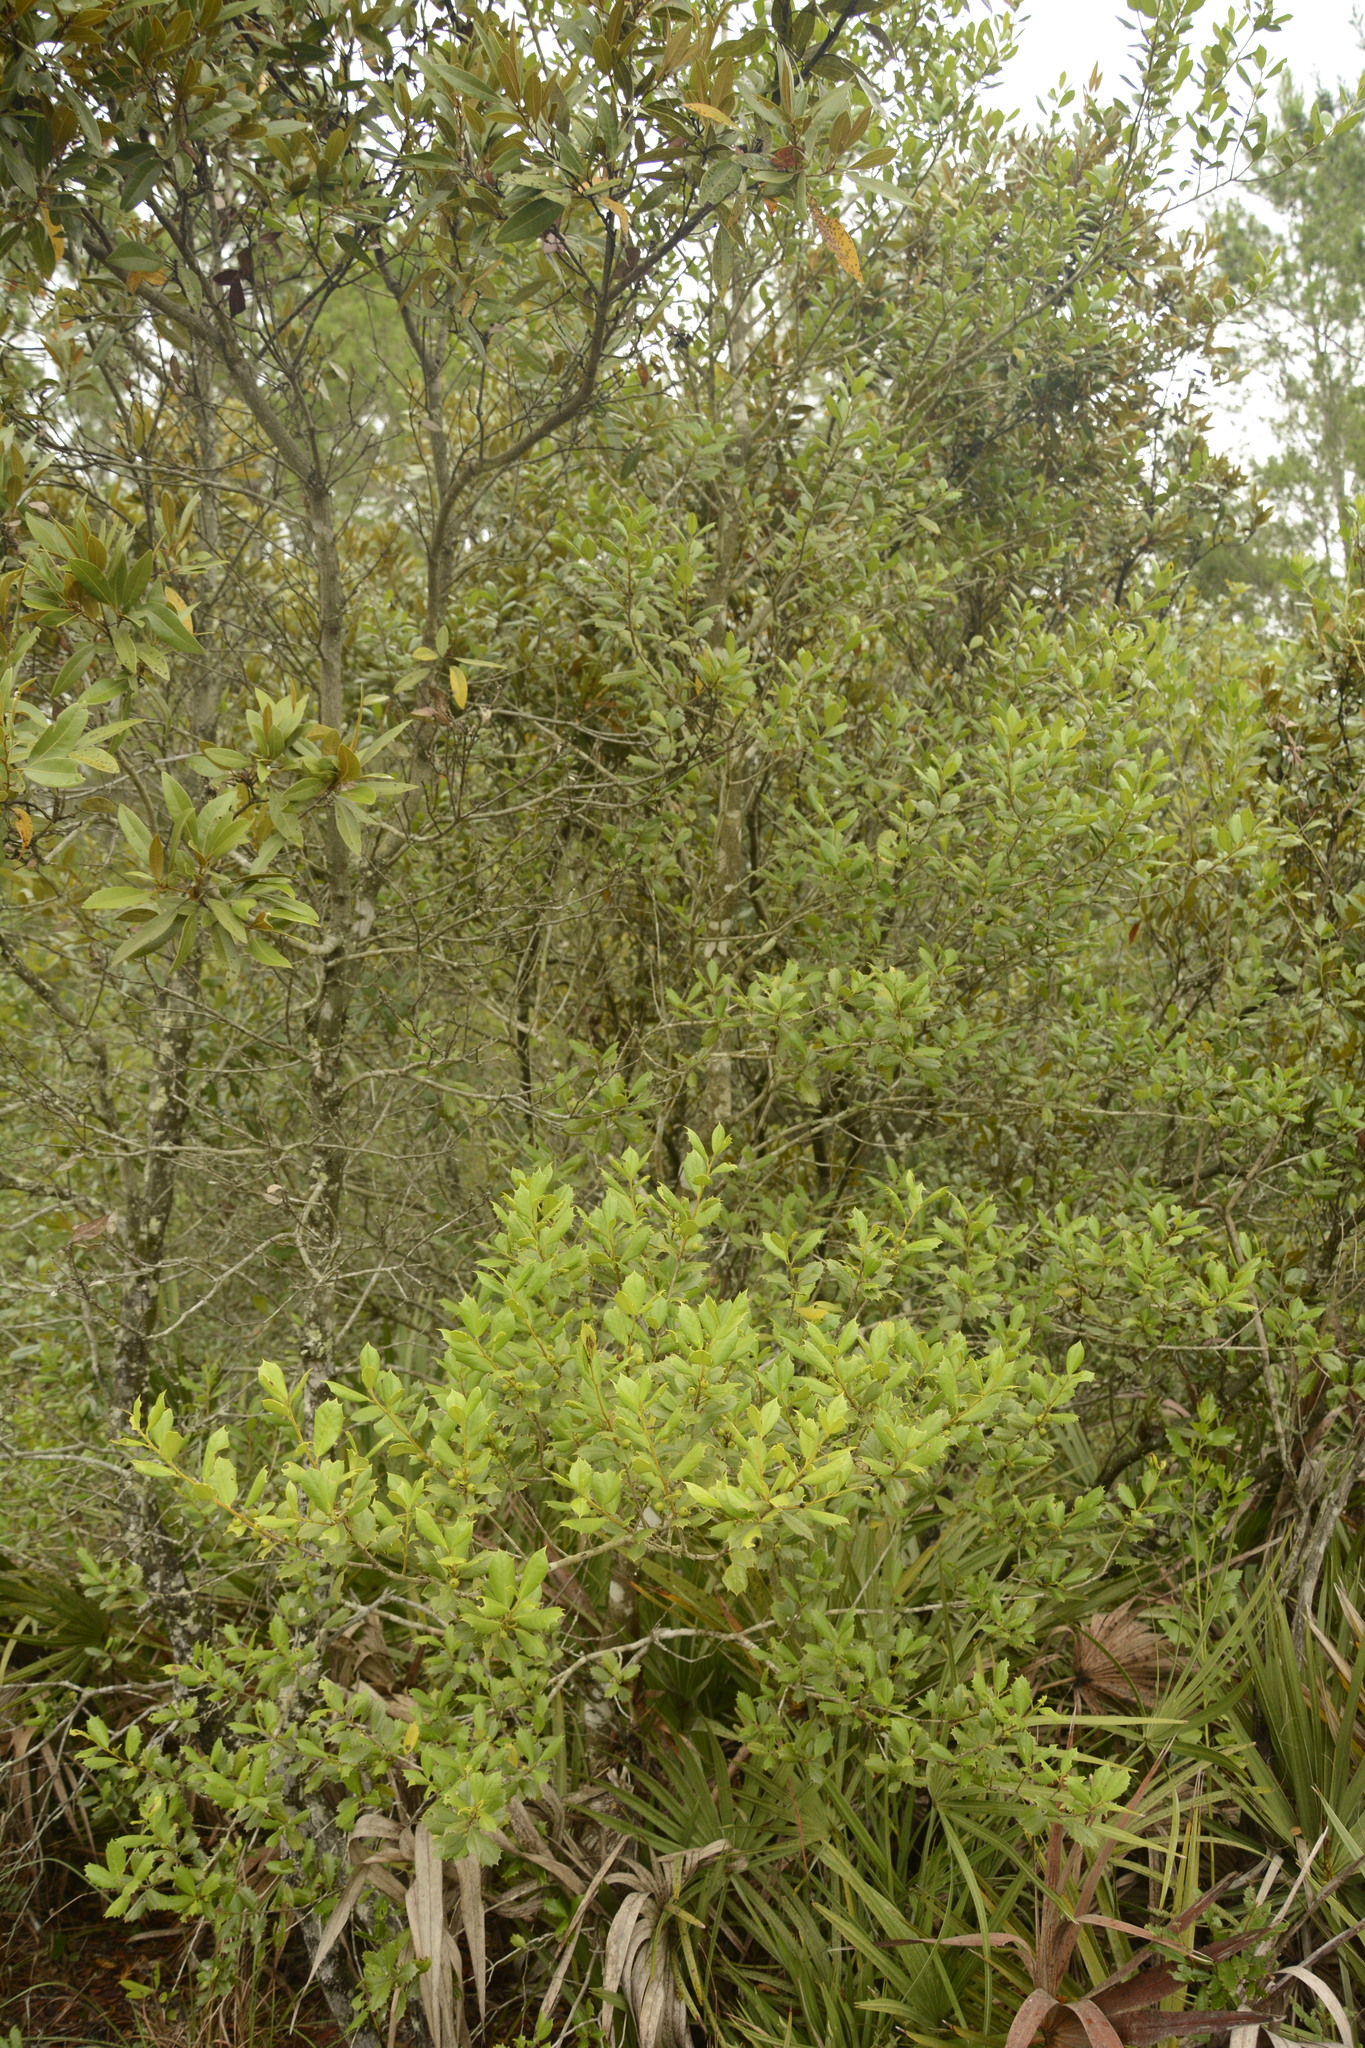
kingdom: Plantae
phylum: Tracheophyta
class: Magnoliopsida
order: Aquifoliales
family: Aquifoliaceae
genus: Ilex
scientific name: Ilex opaca
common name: American holly
